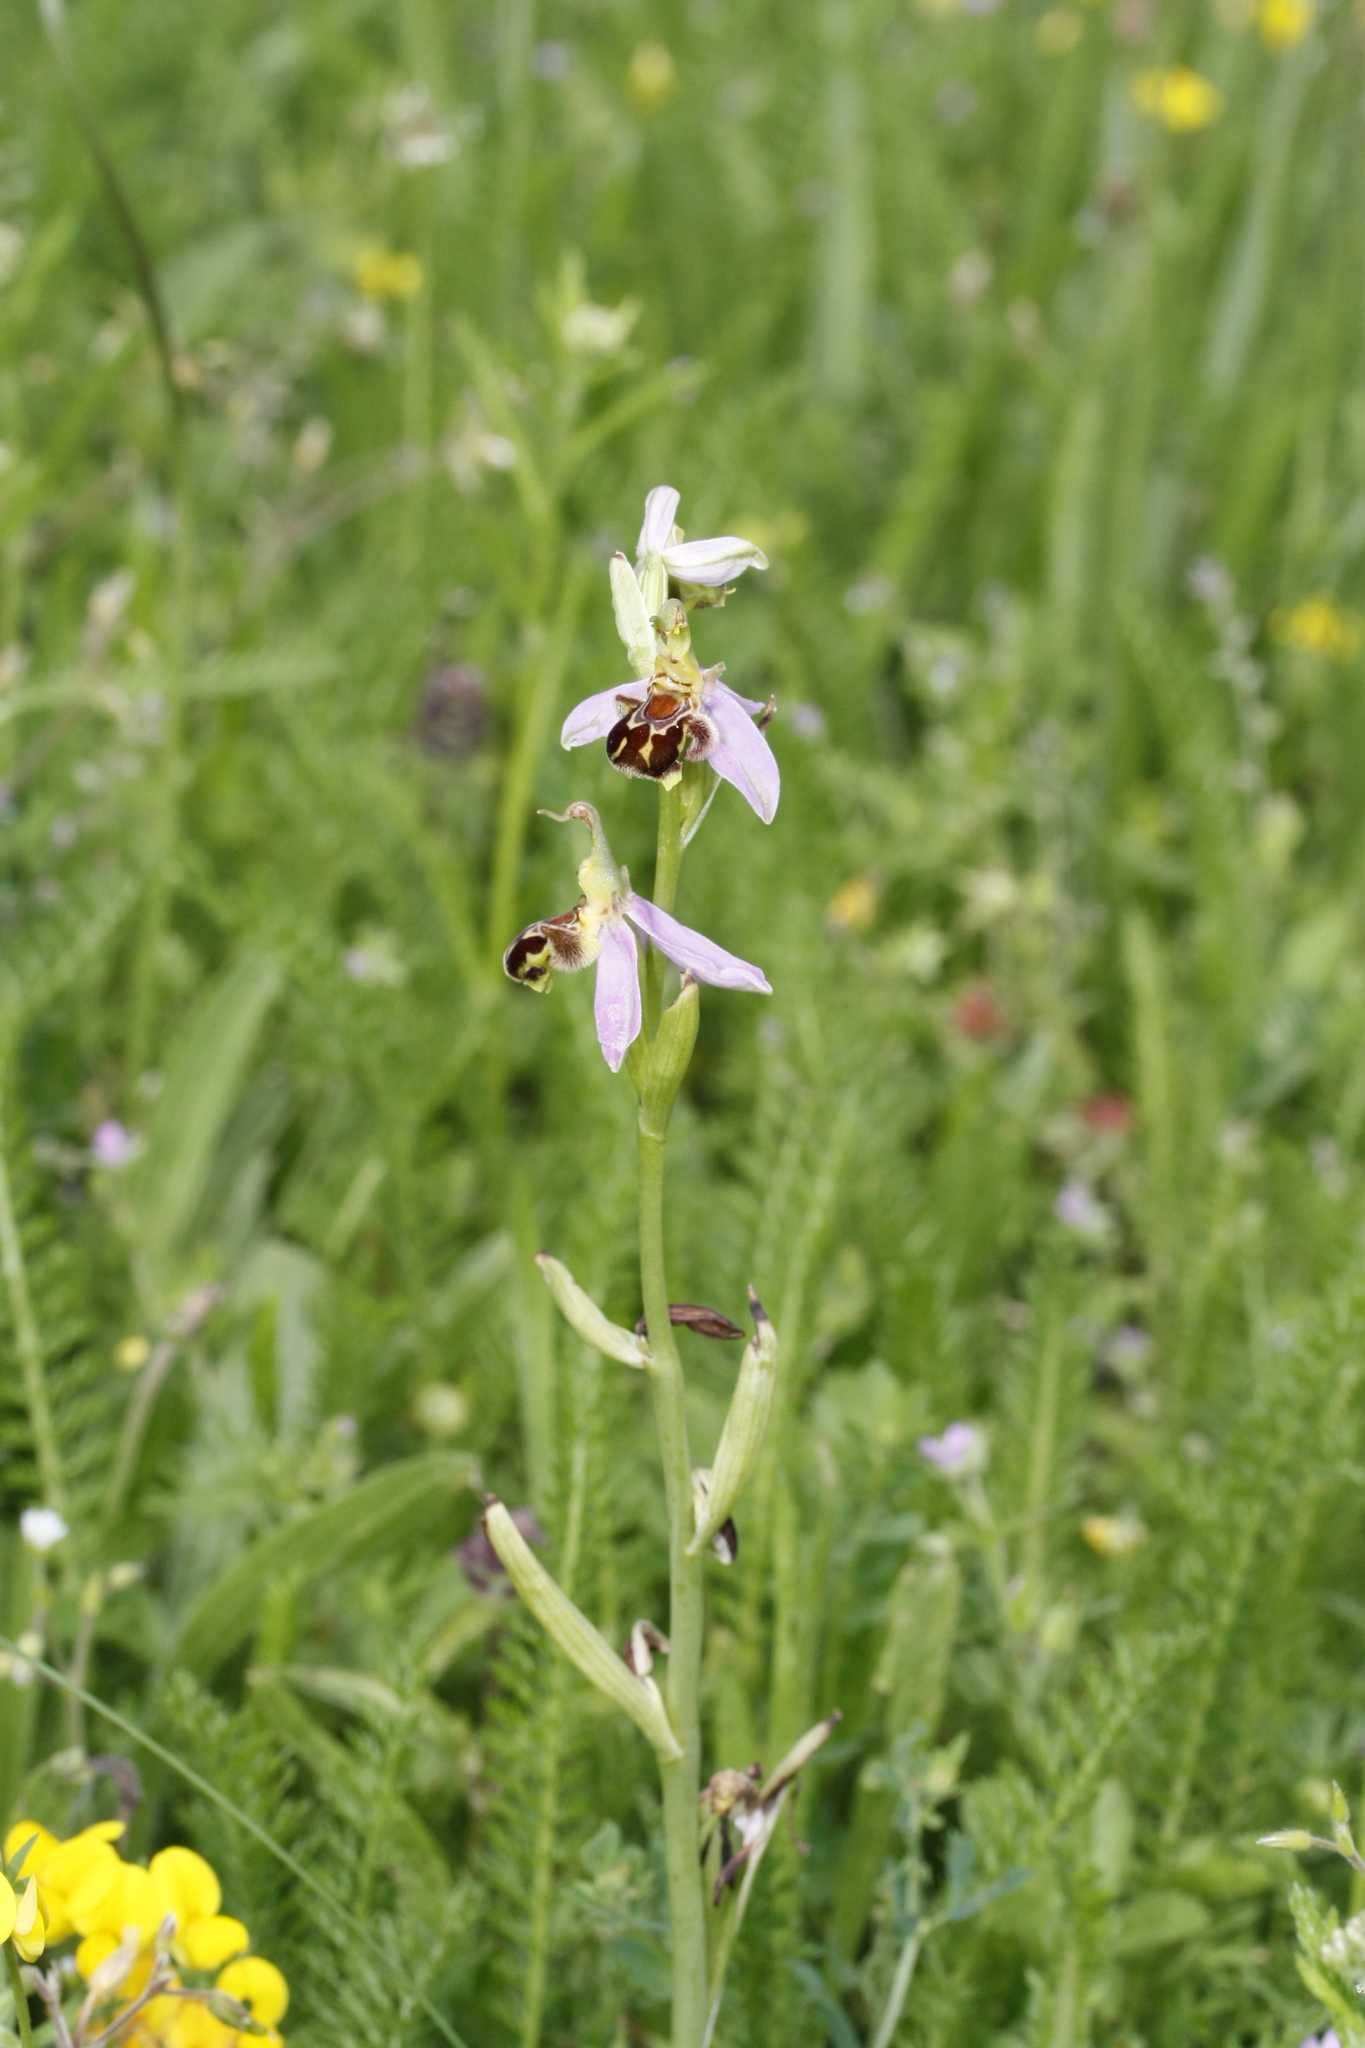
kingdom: Plantae
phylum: Tracheophyta
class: Liliopsida
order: Asparagales
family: Orchidaceae
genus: Ophrys
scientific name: Ophrys apifera
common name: Bee orchid
